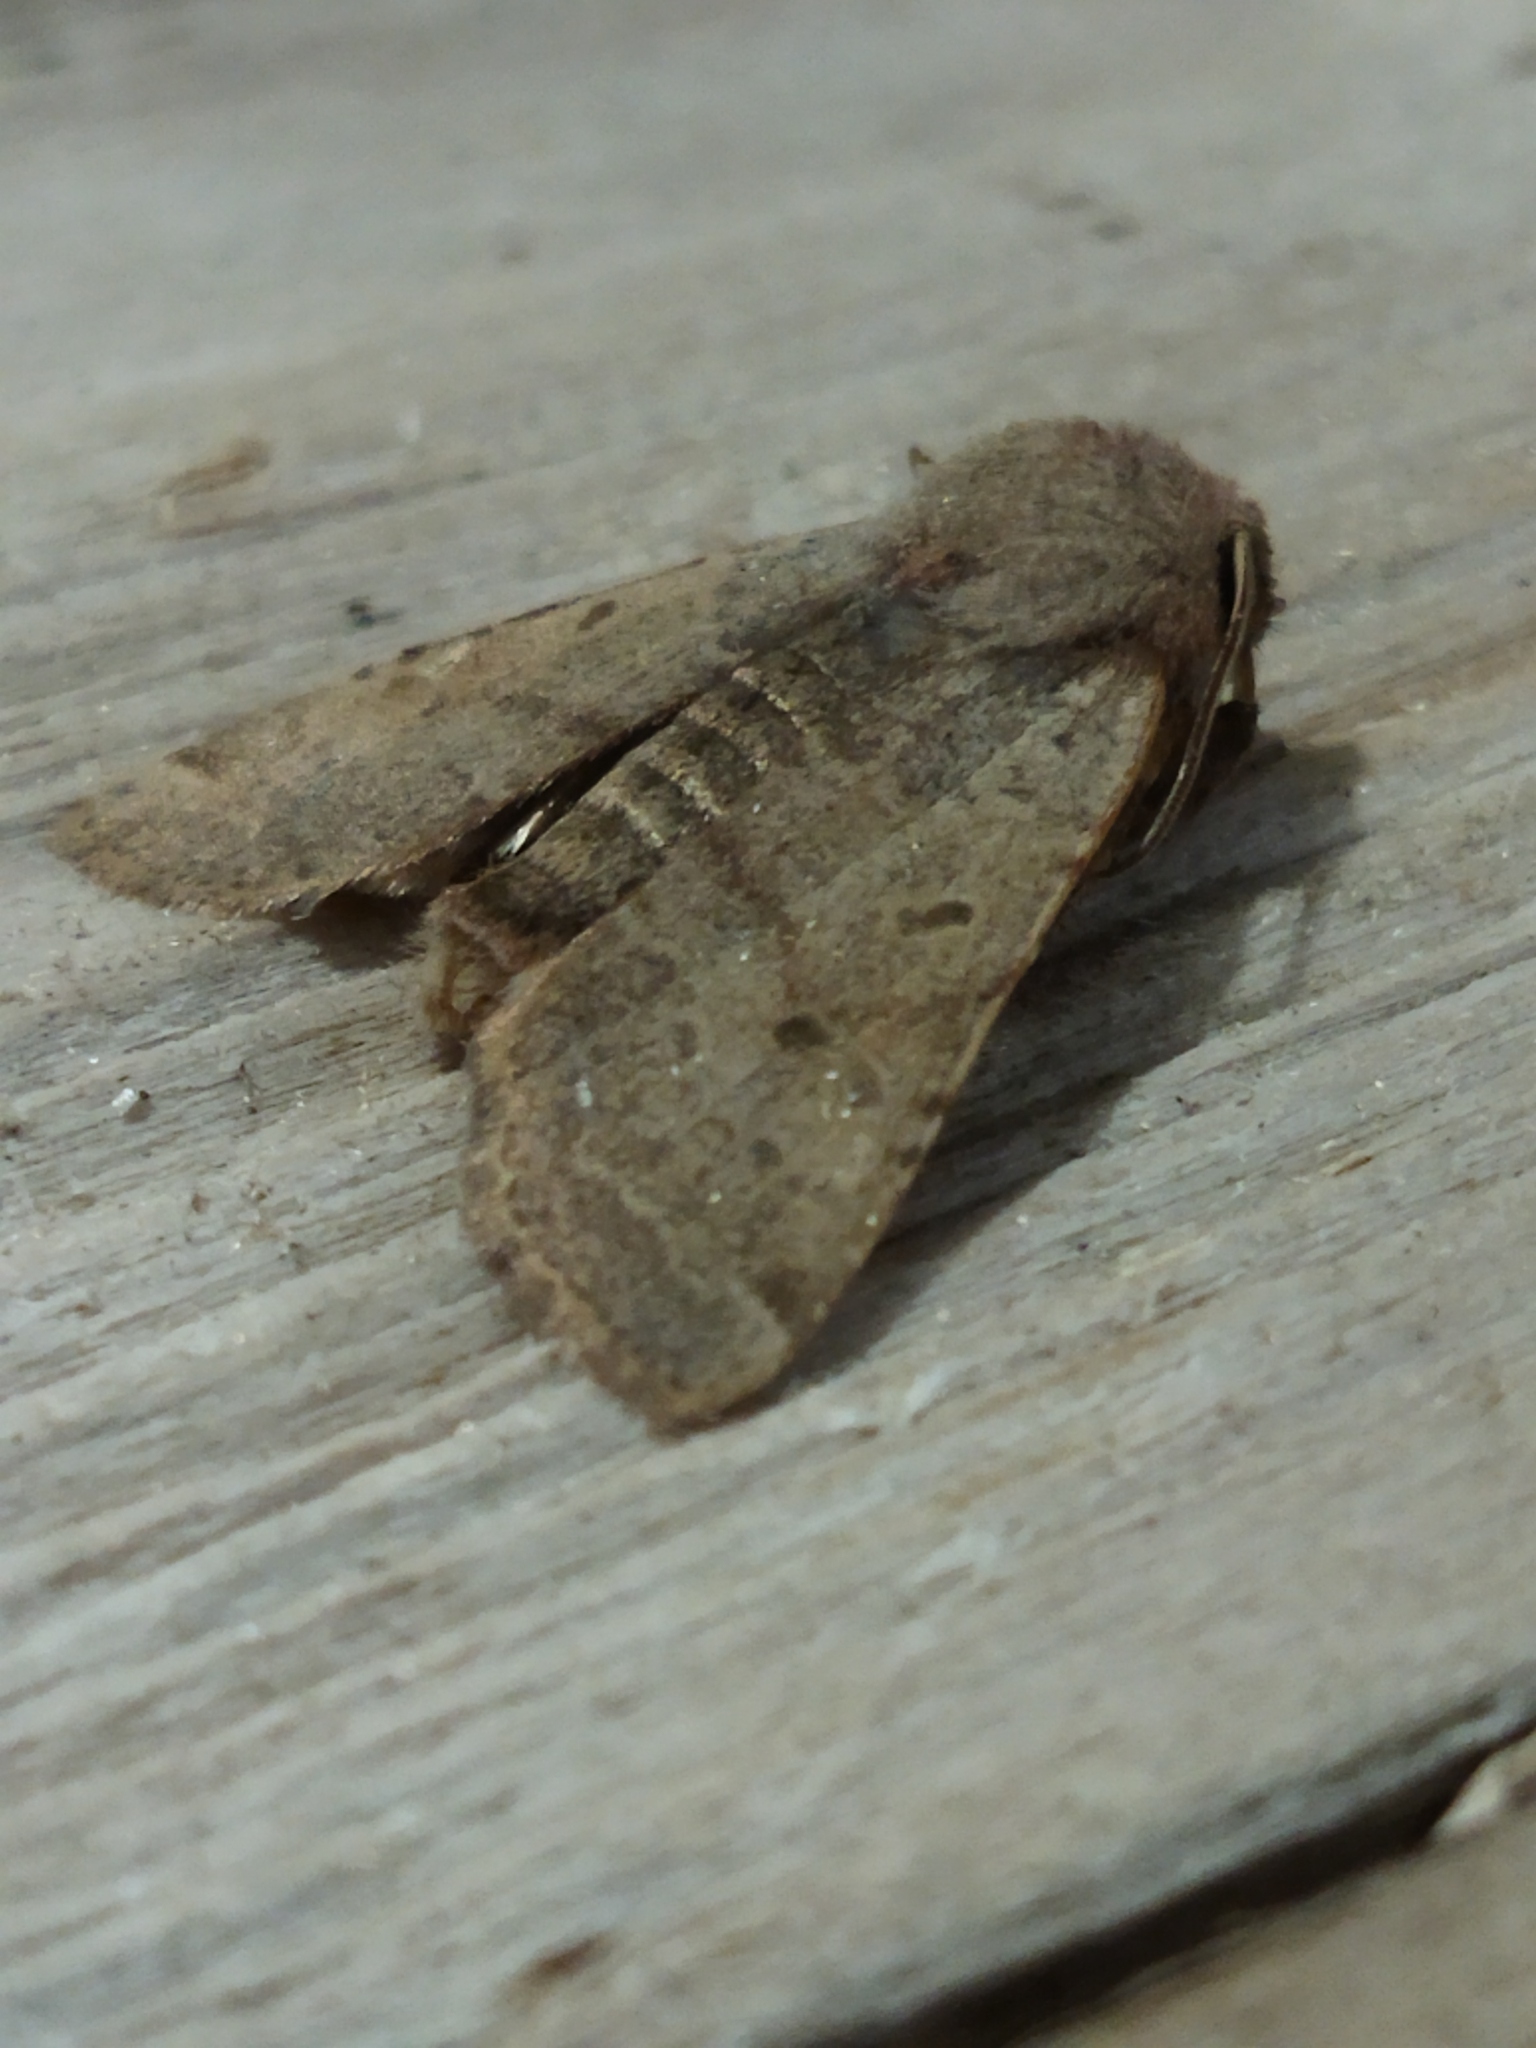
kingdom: Animalia
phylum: Arthropoda
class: Insecta
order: Lepidoptera
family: Noctuidae
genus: Agrochola
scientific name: Agrochola lychnidis
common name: Beaded chestnut
